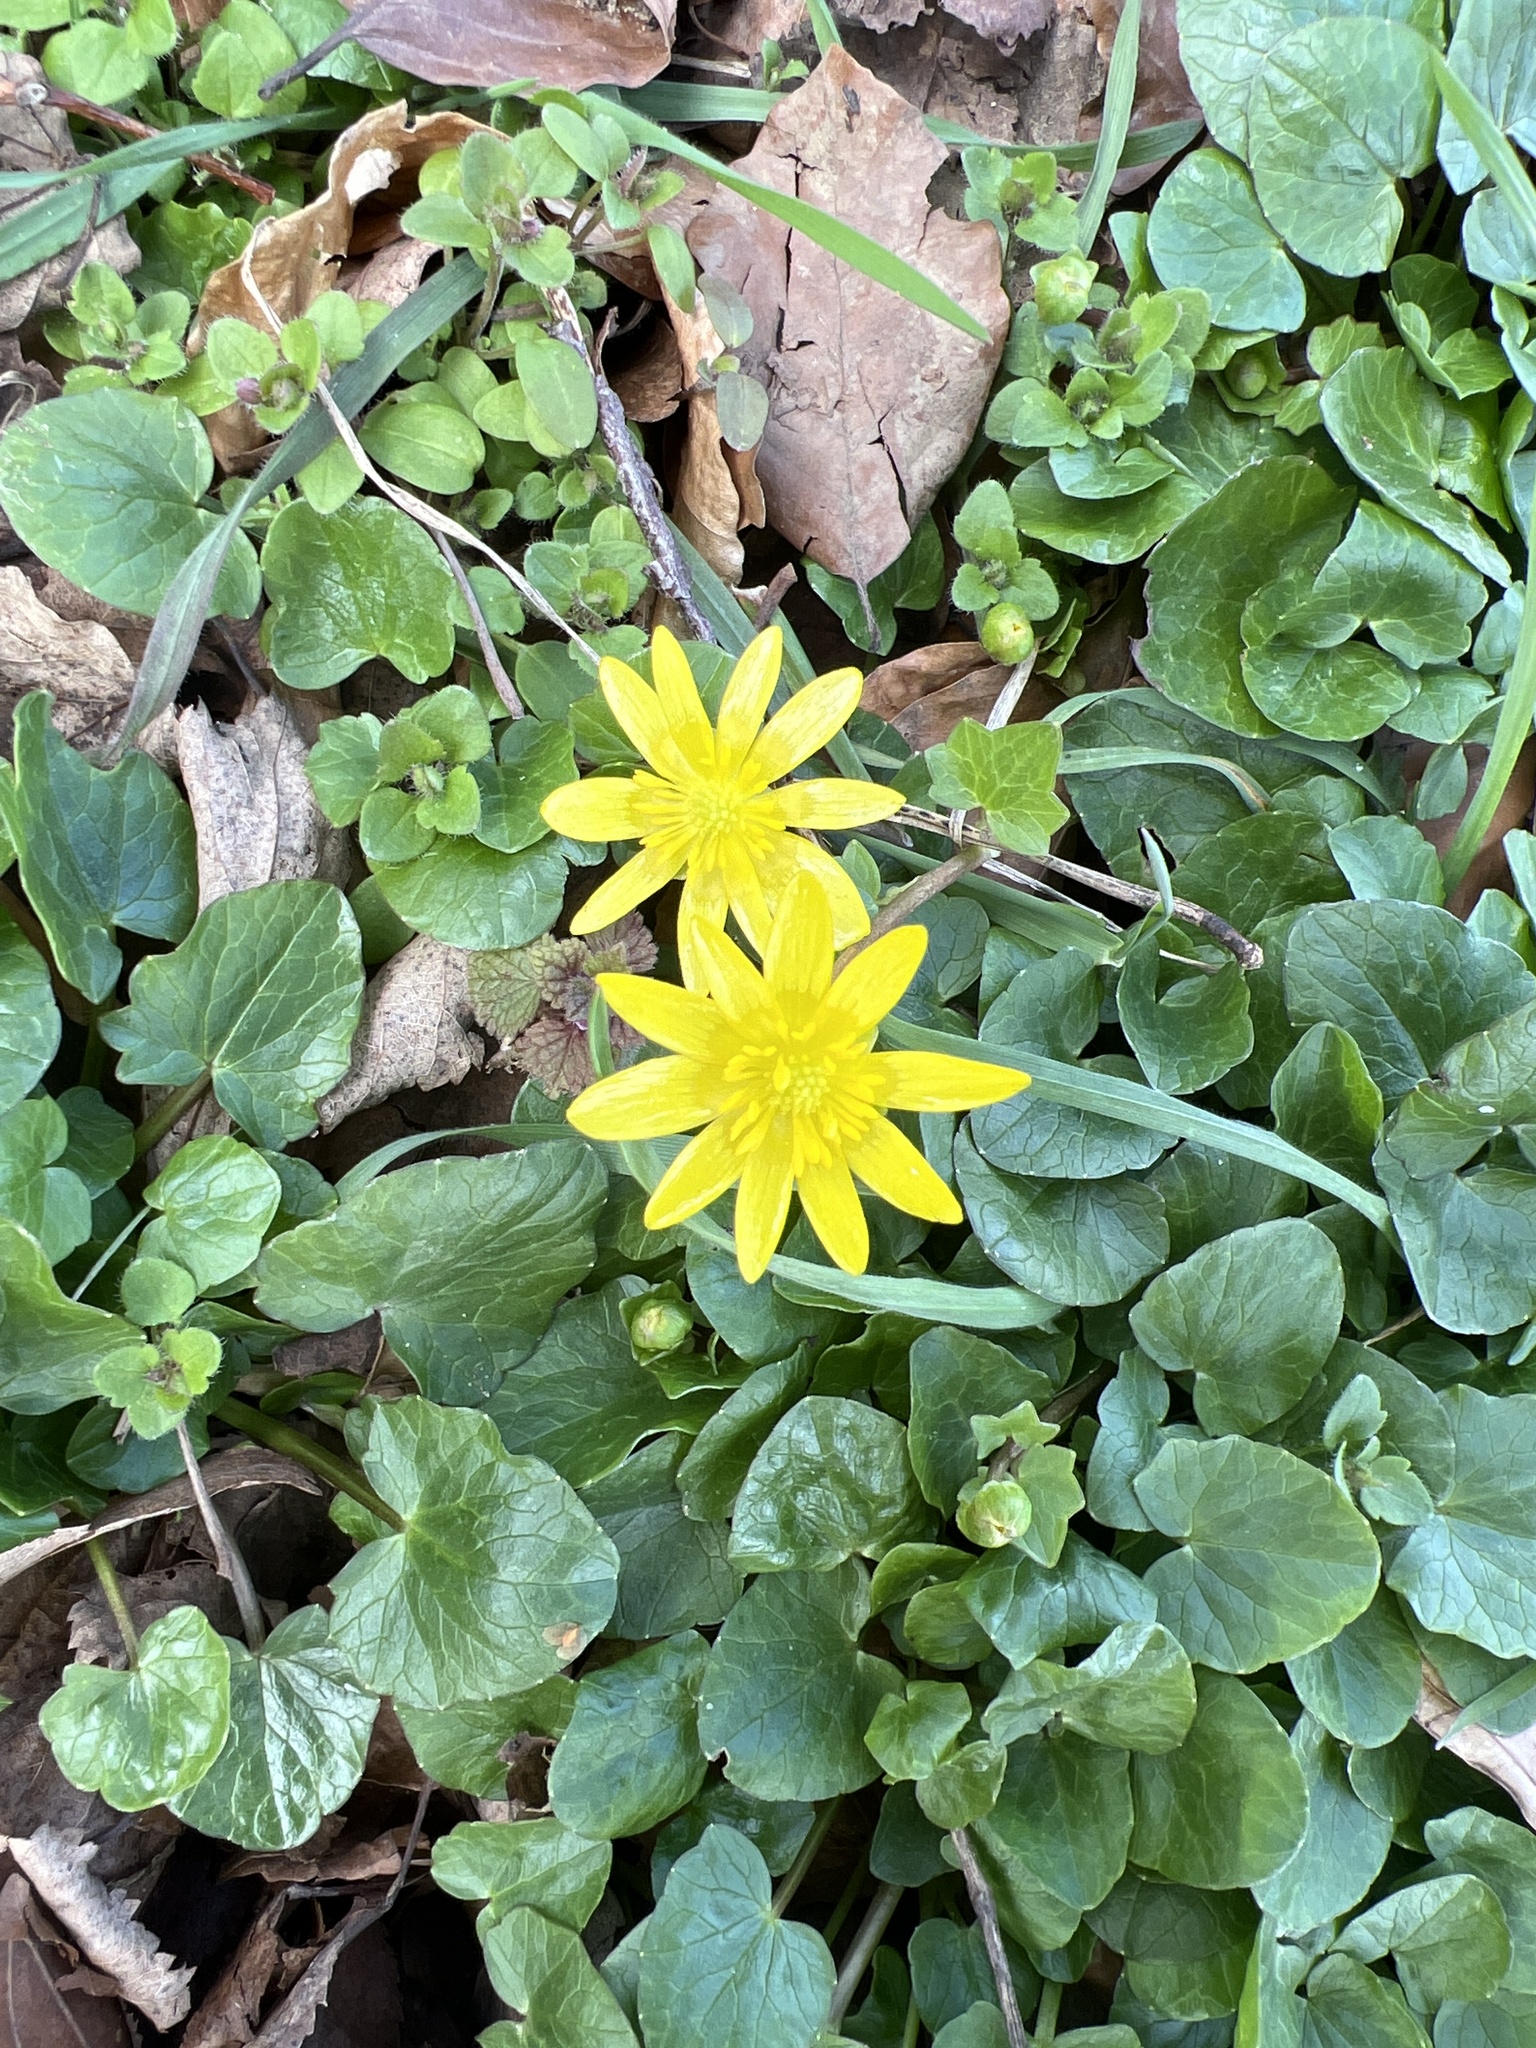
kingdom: Plantae
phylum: Tracheophyta
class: Magnoliopsida
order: Ranunculales
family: Ranunculaceae
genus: Ficaria
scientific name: Ficaria verna
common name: Lesser celandine
